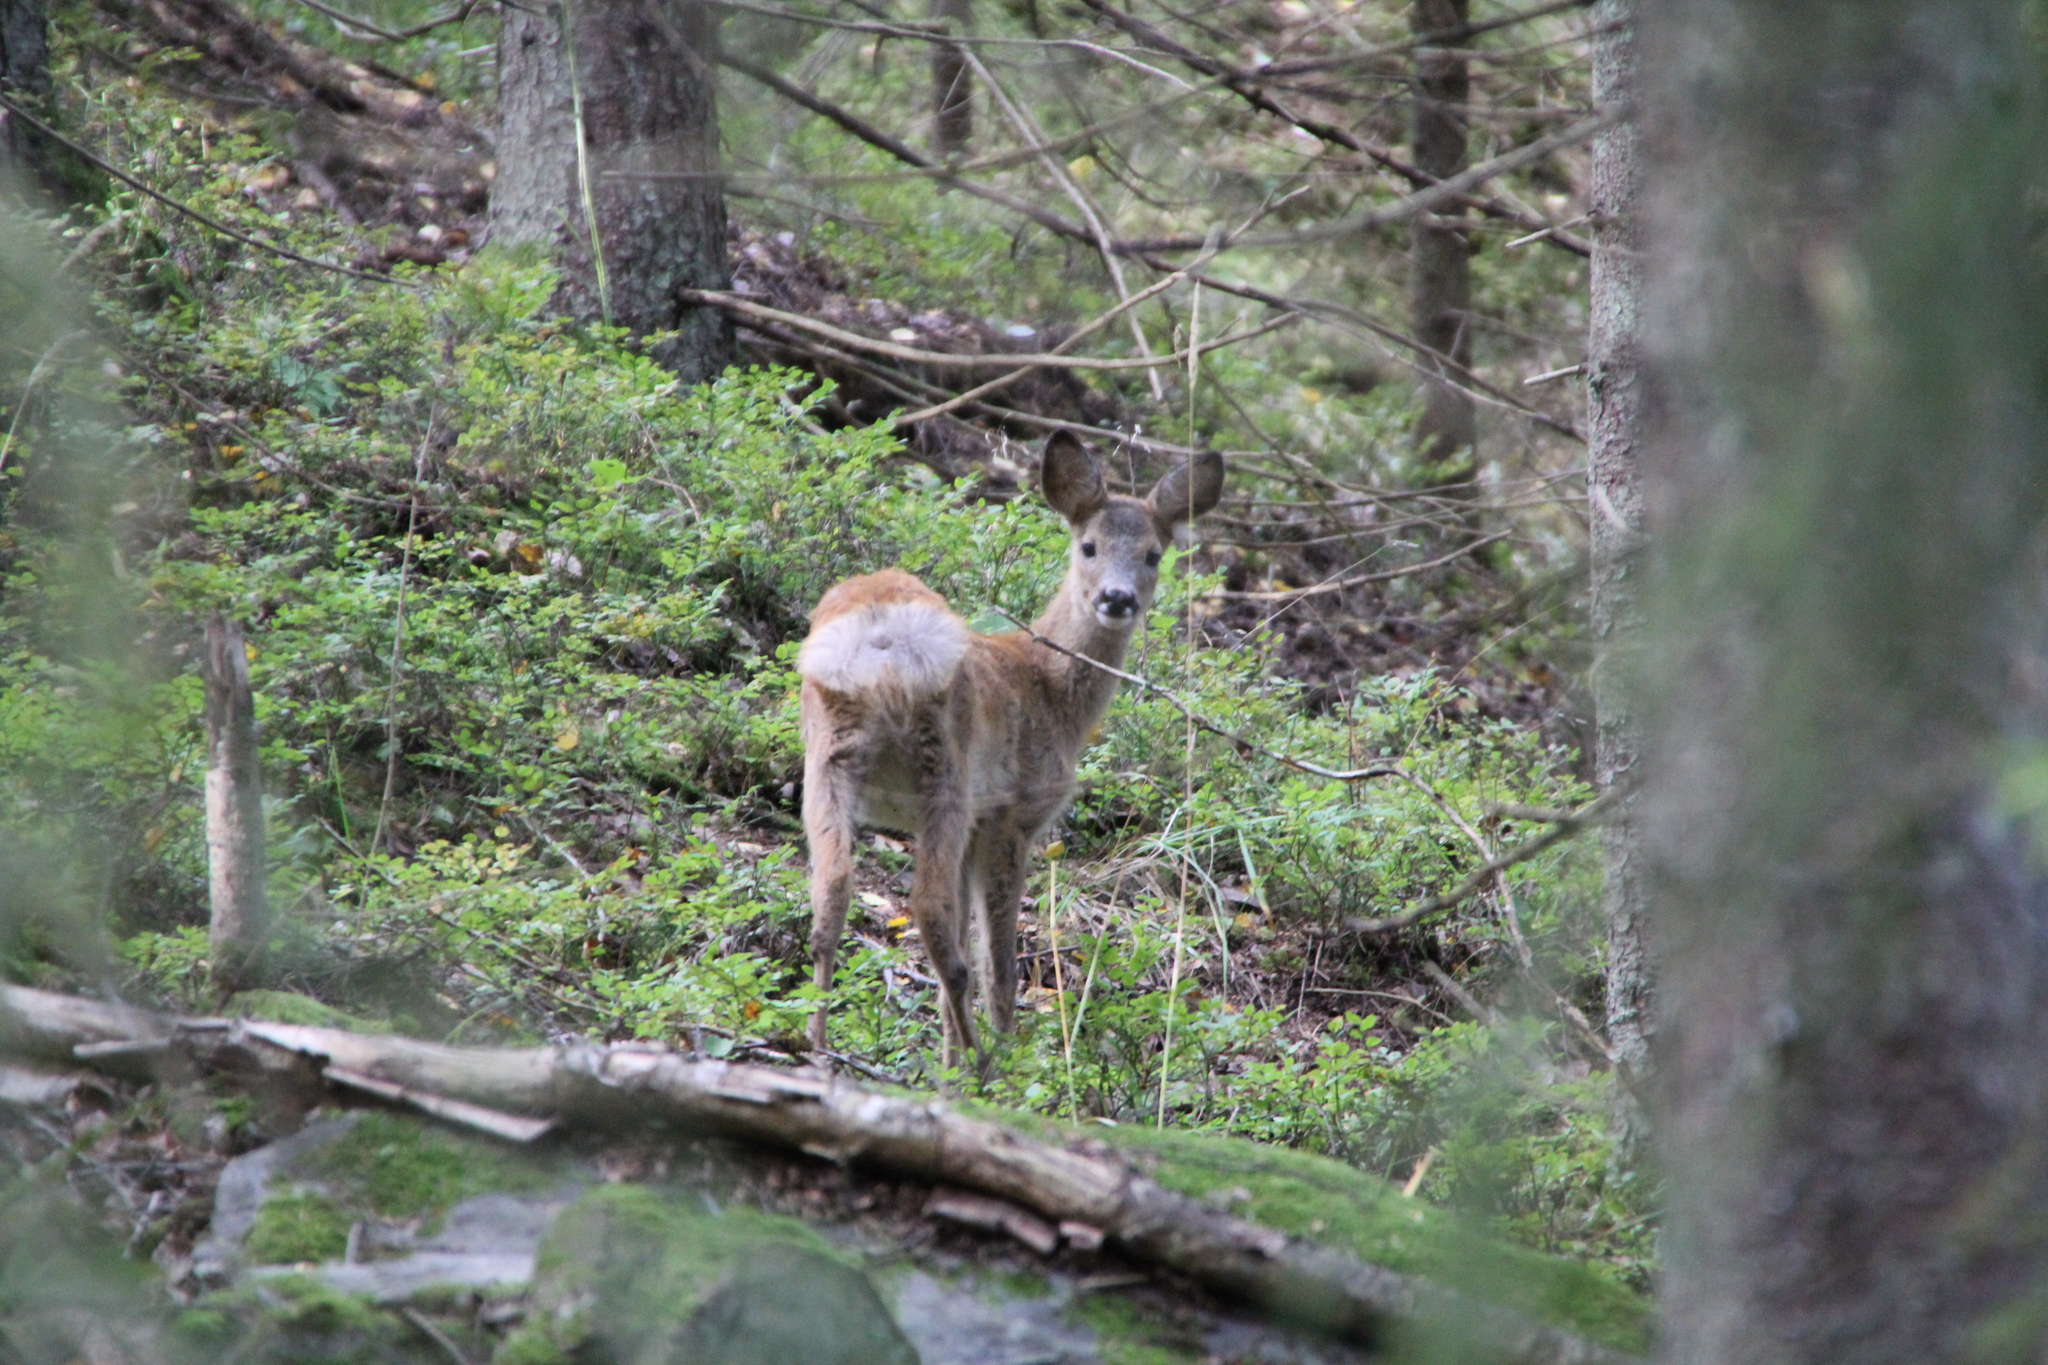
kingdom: Animalia
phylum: Chordata
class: Mammalia
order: Artiodactyla
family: Cervidae
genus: Capreolus
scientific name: Capreolus capreolus
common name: Western roe deer
